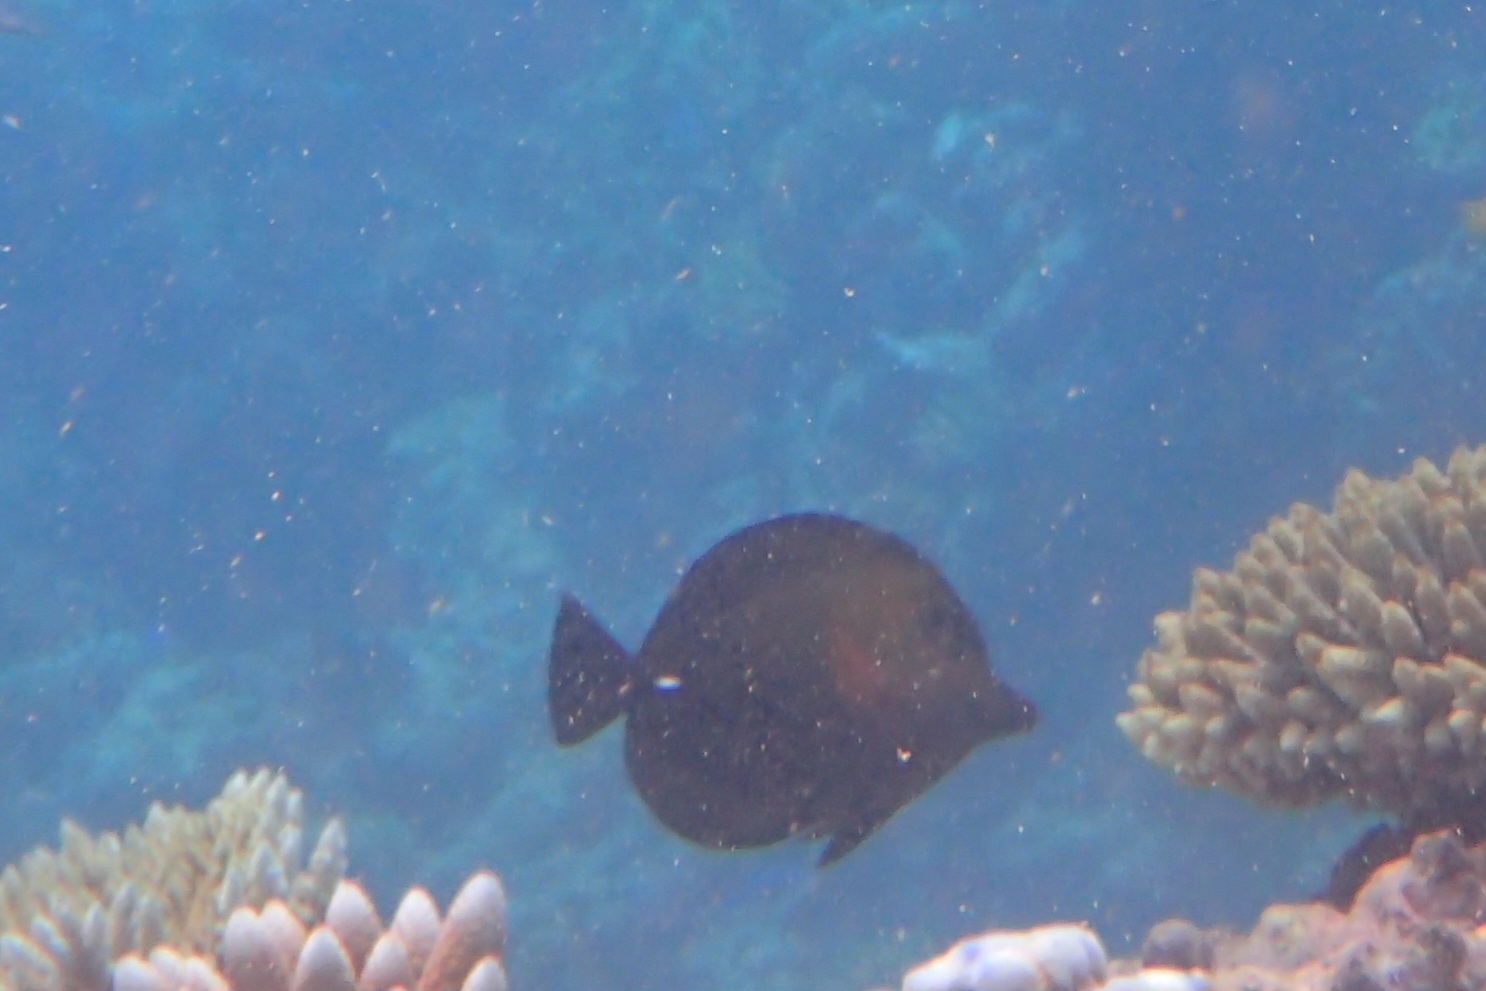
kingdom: Animalia
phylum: Chordata
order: Perciformes
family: Acanthuridae
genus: Zebrasoma
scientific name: Zebrasoma scopas
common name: Twotone tang
